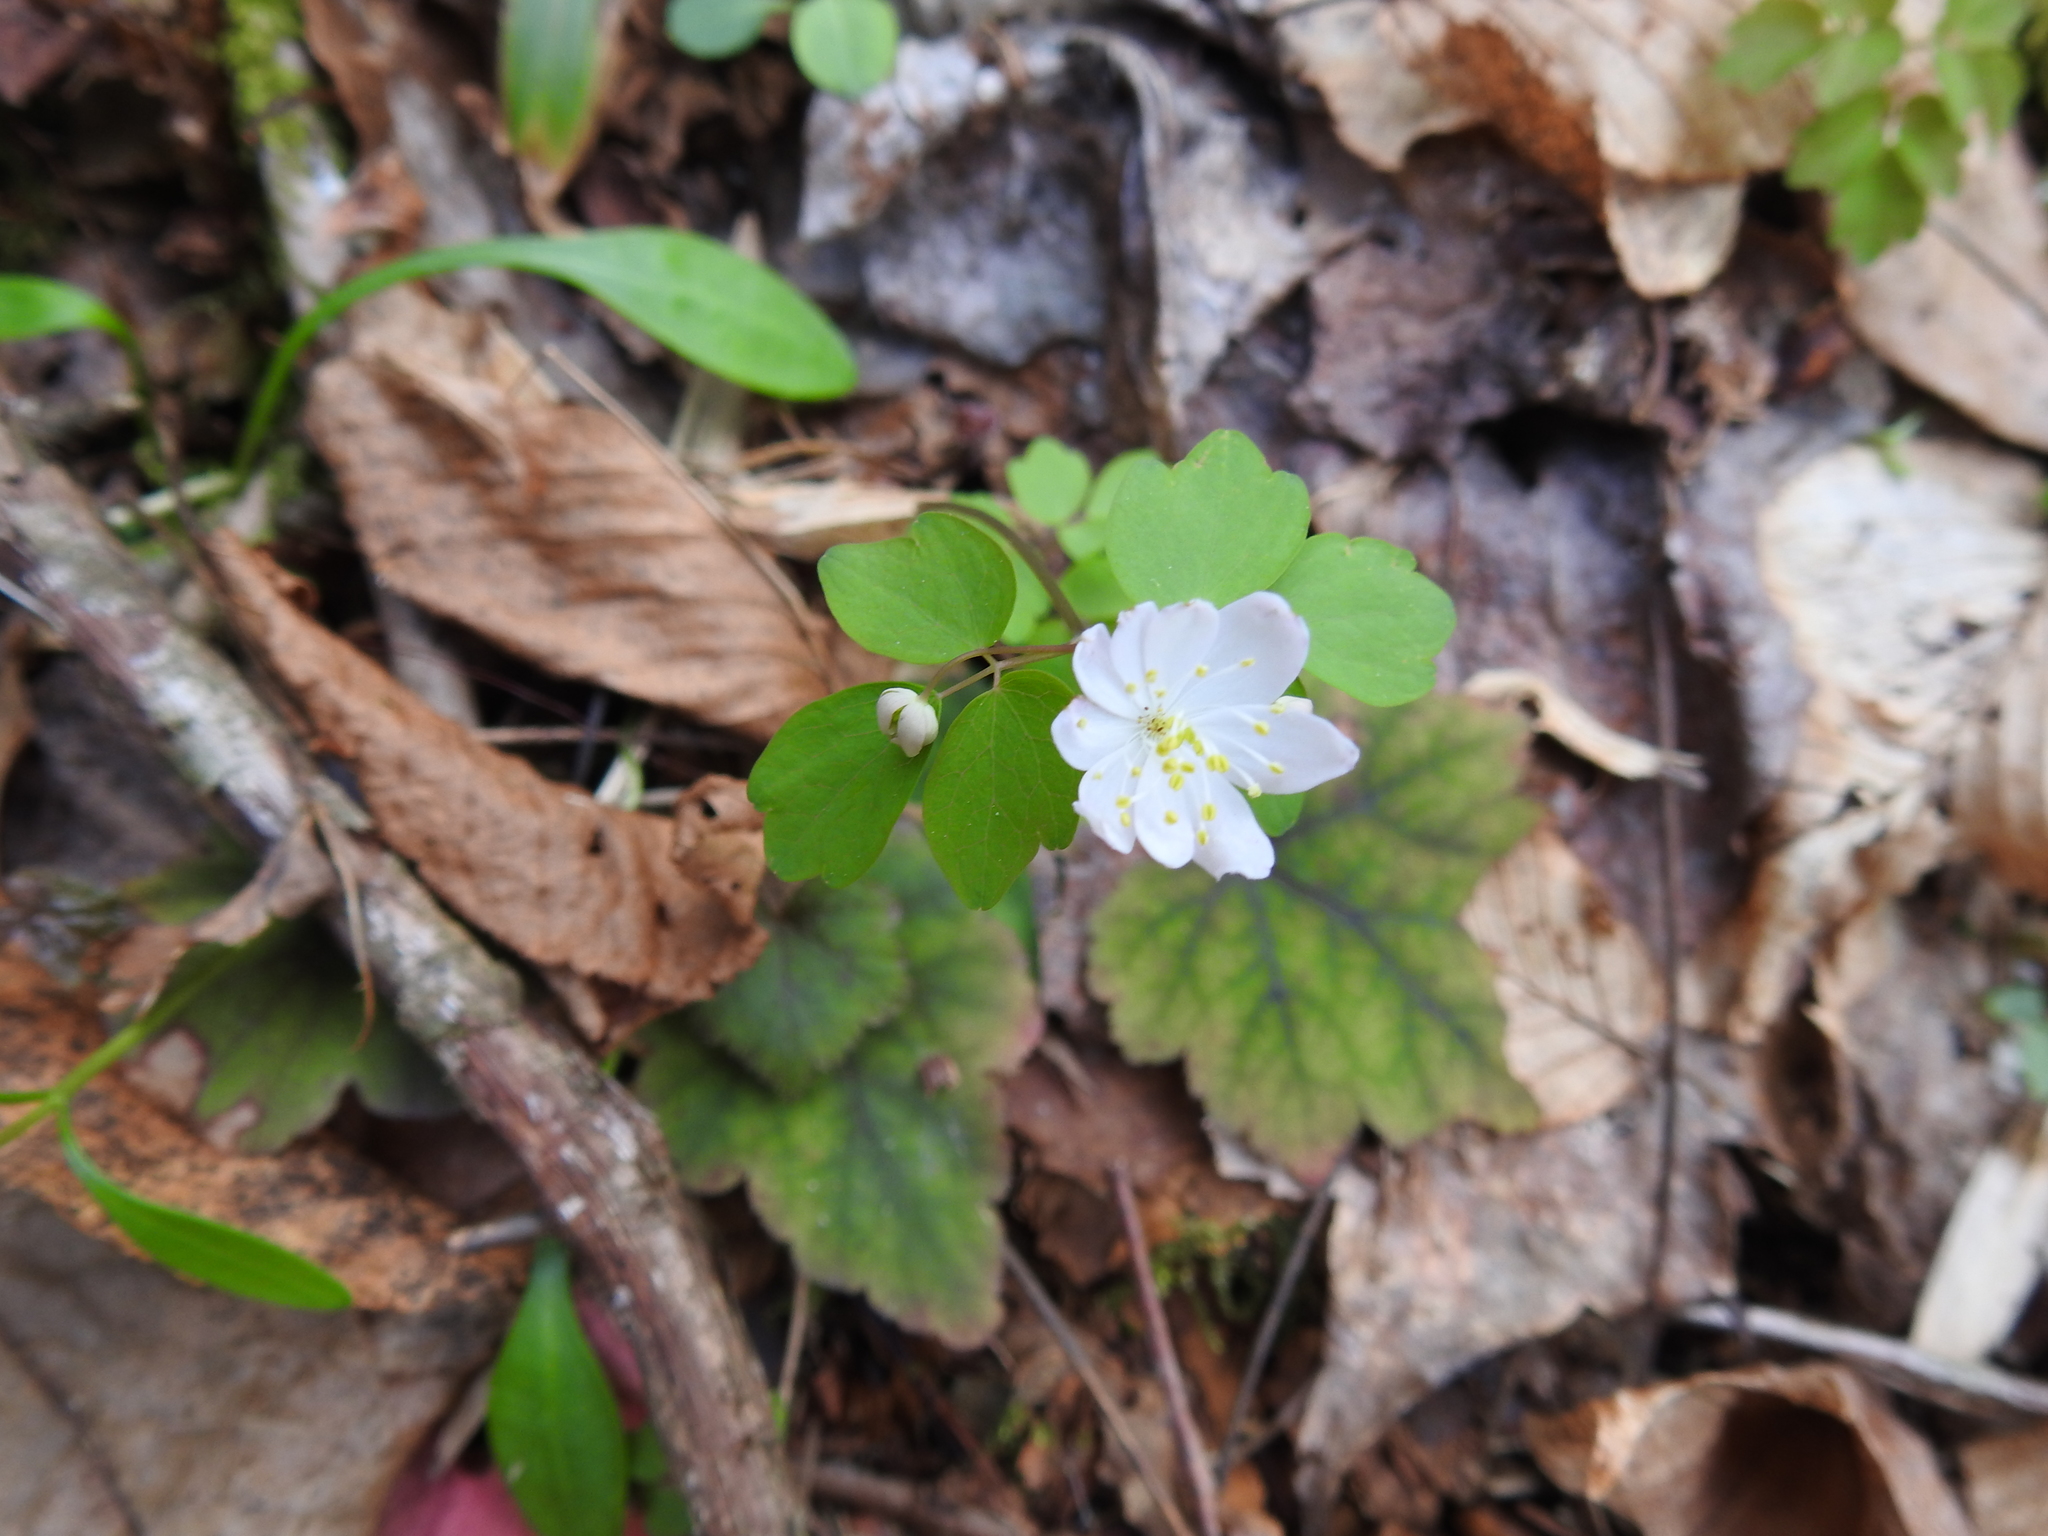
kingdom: Plantae
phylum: Tracheophyta
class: Magnoliopsida
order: Ranunculales
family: Ranunculaceae
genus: Thalictrum
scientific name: Thalictrum thalictroides
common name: Rue-anemone
